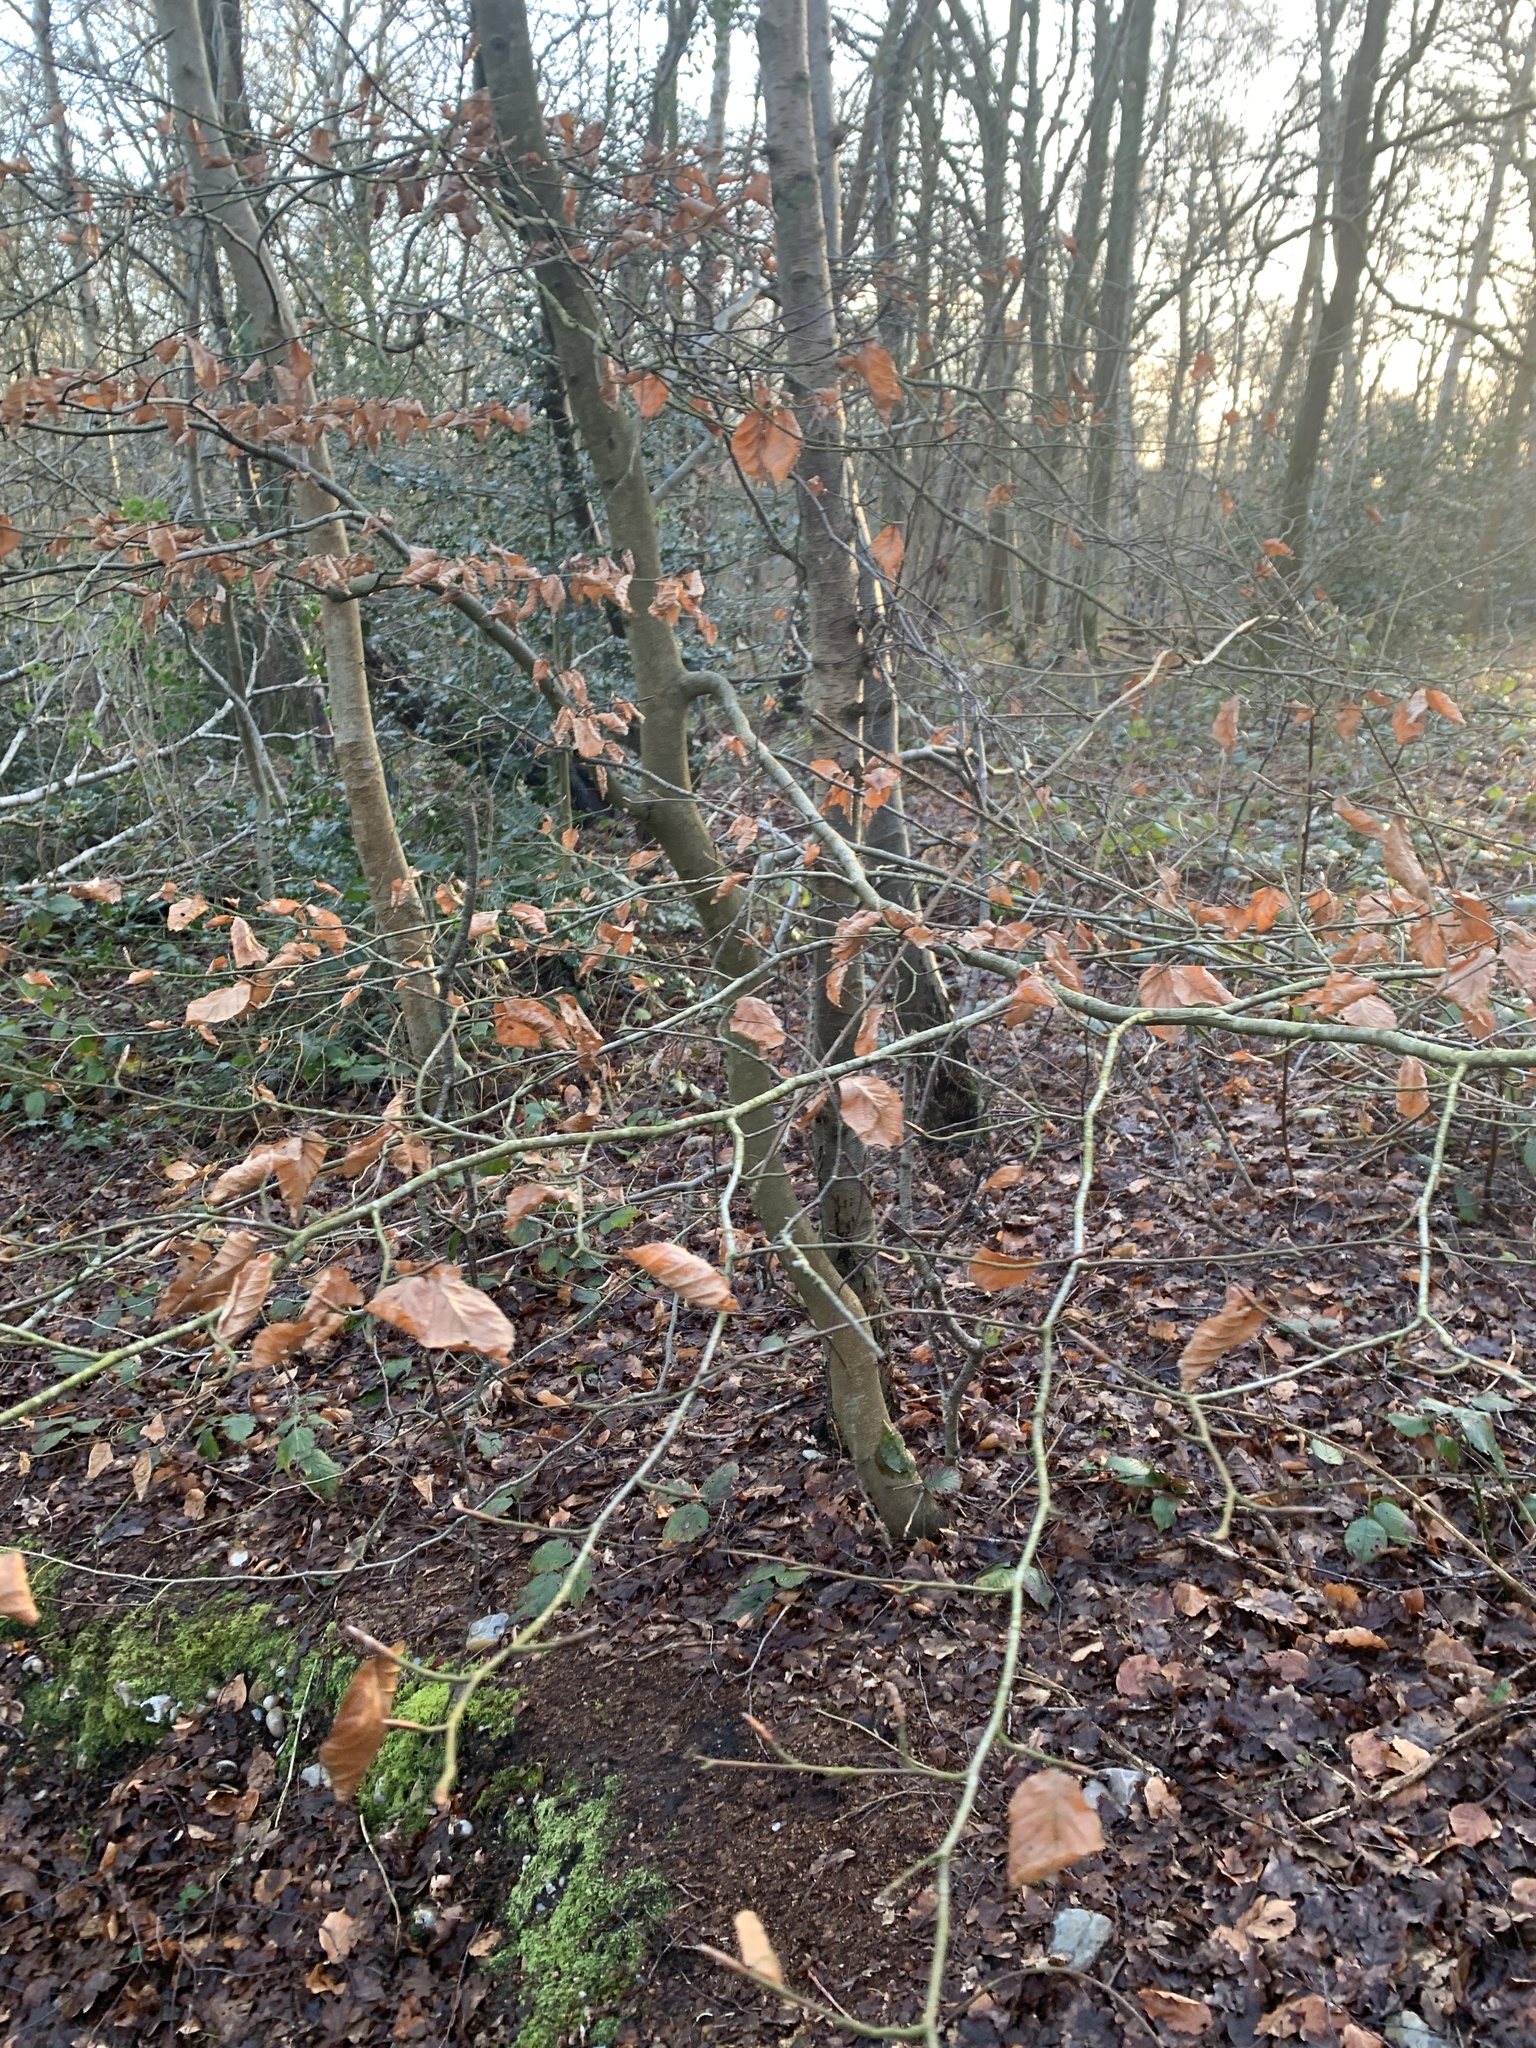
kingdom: Plantae
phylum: Tracheophyta
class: Magnoliopsida
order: Fagales
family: Fagaceae
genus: Fagus
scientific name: Fagus sylvatica
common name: Beech
